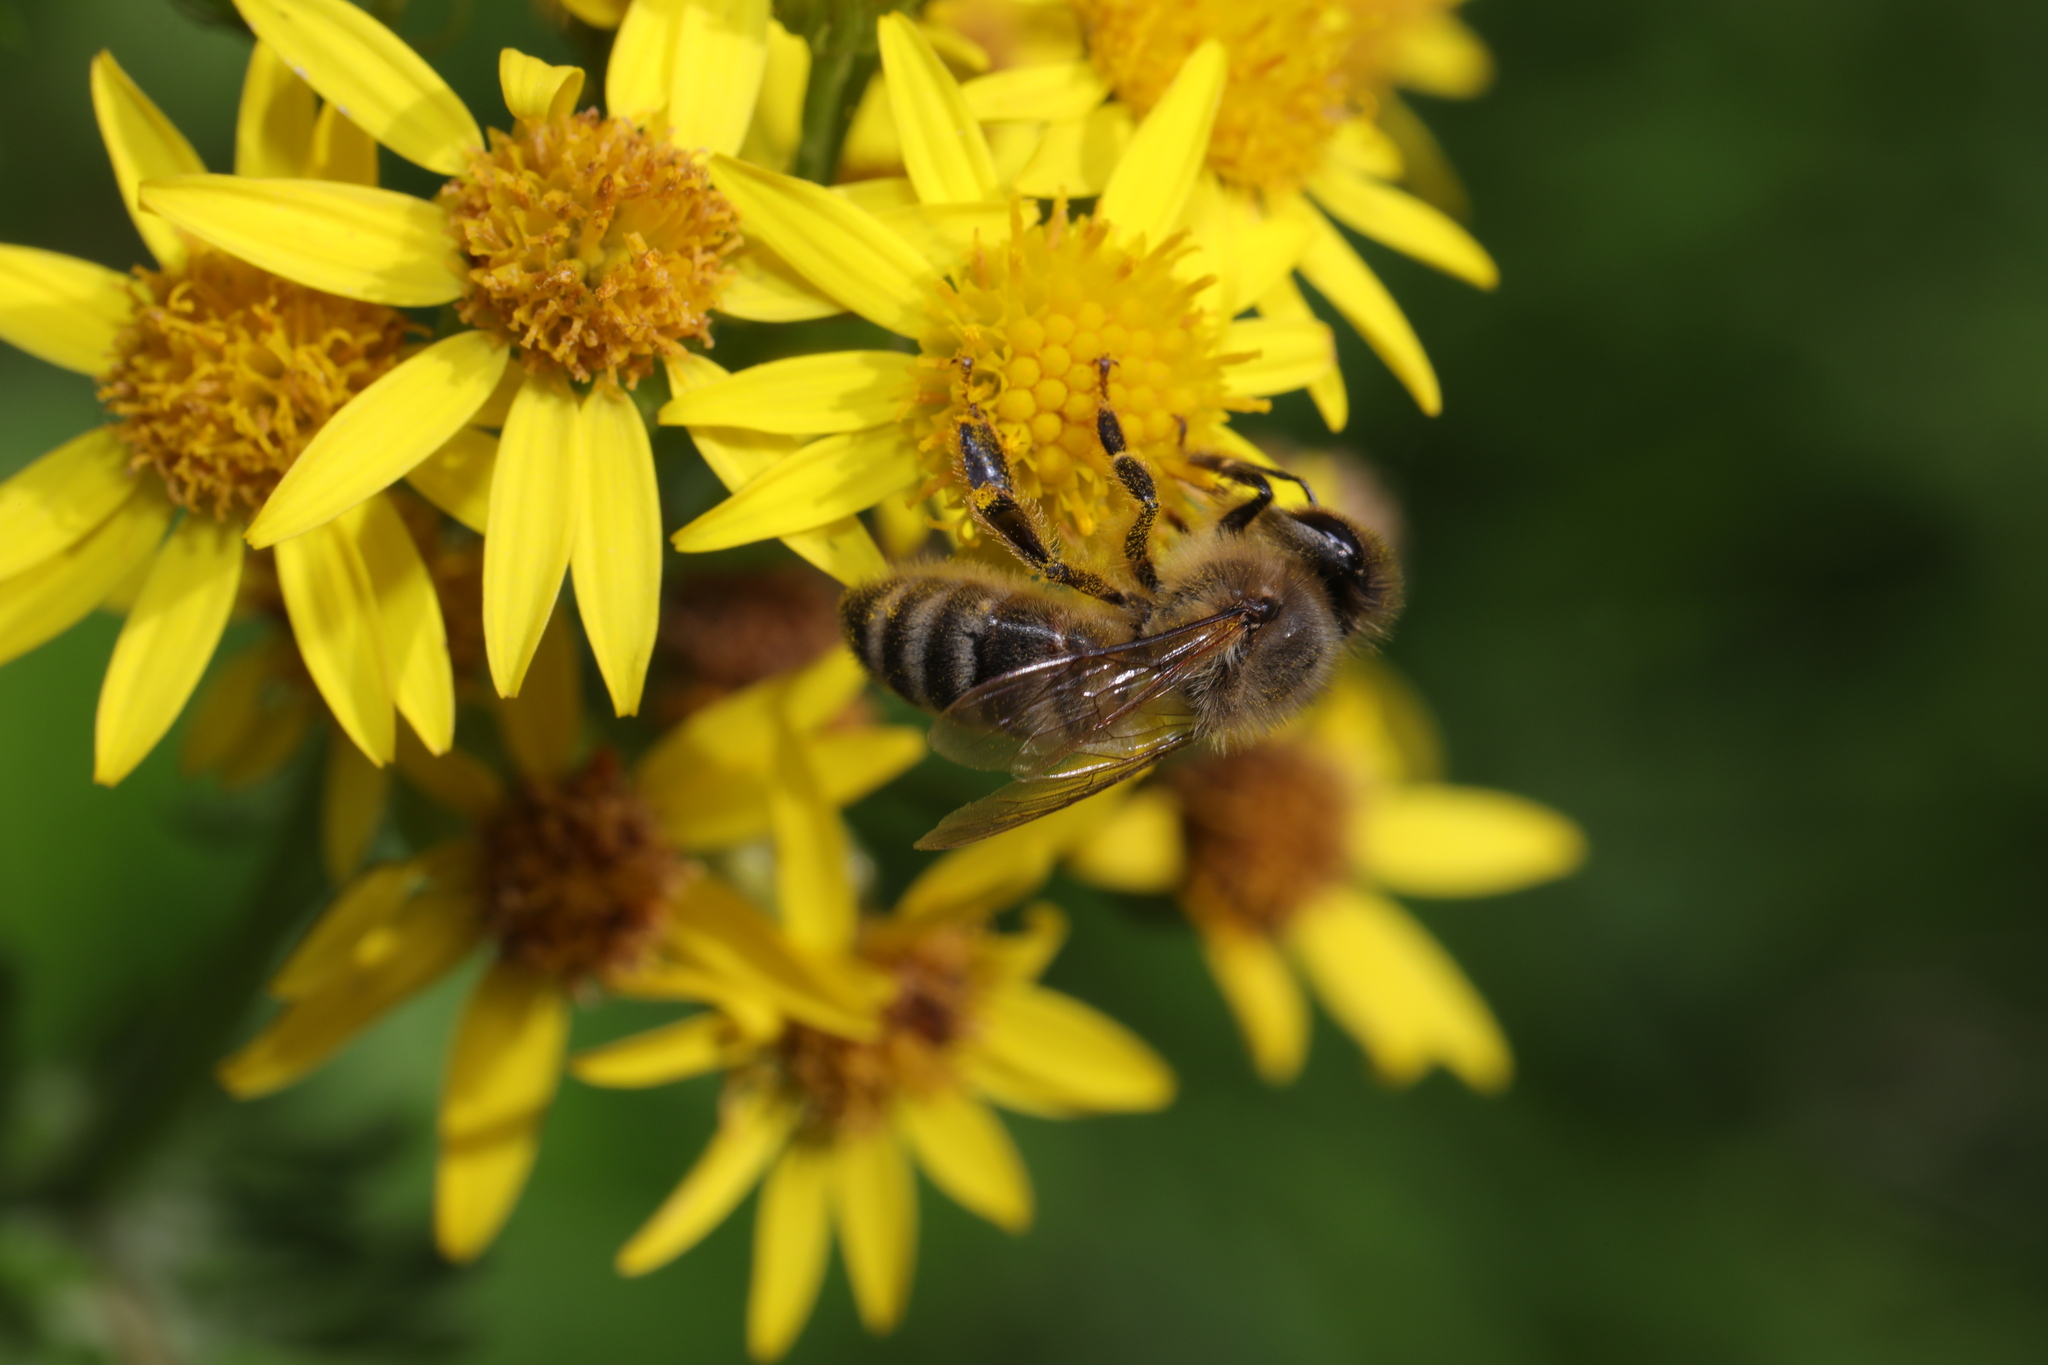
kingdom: Animalia
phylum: Arthropoda
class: Insecta
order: Hymenoptera
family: Apidae
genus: Apis
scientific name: Apis mellifera
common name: Honey bee
